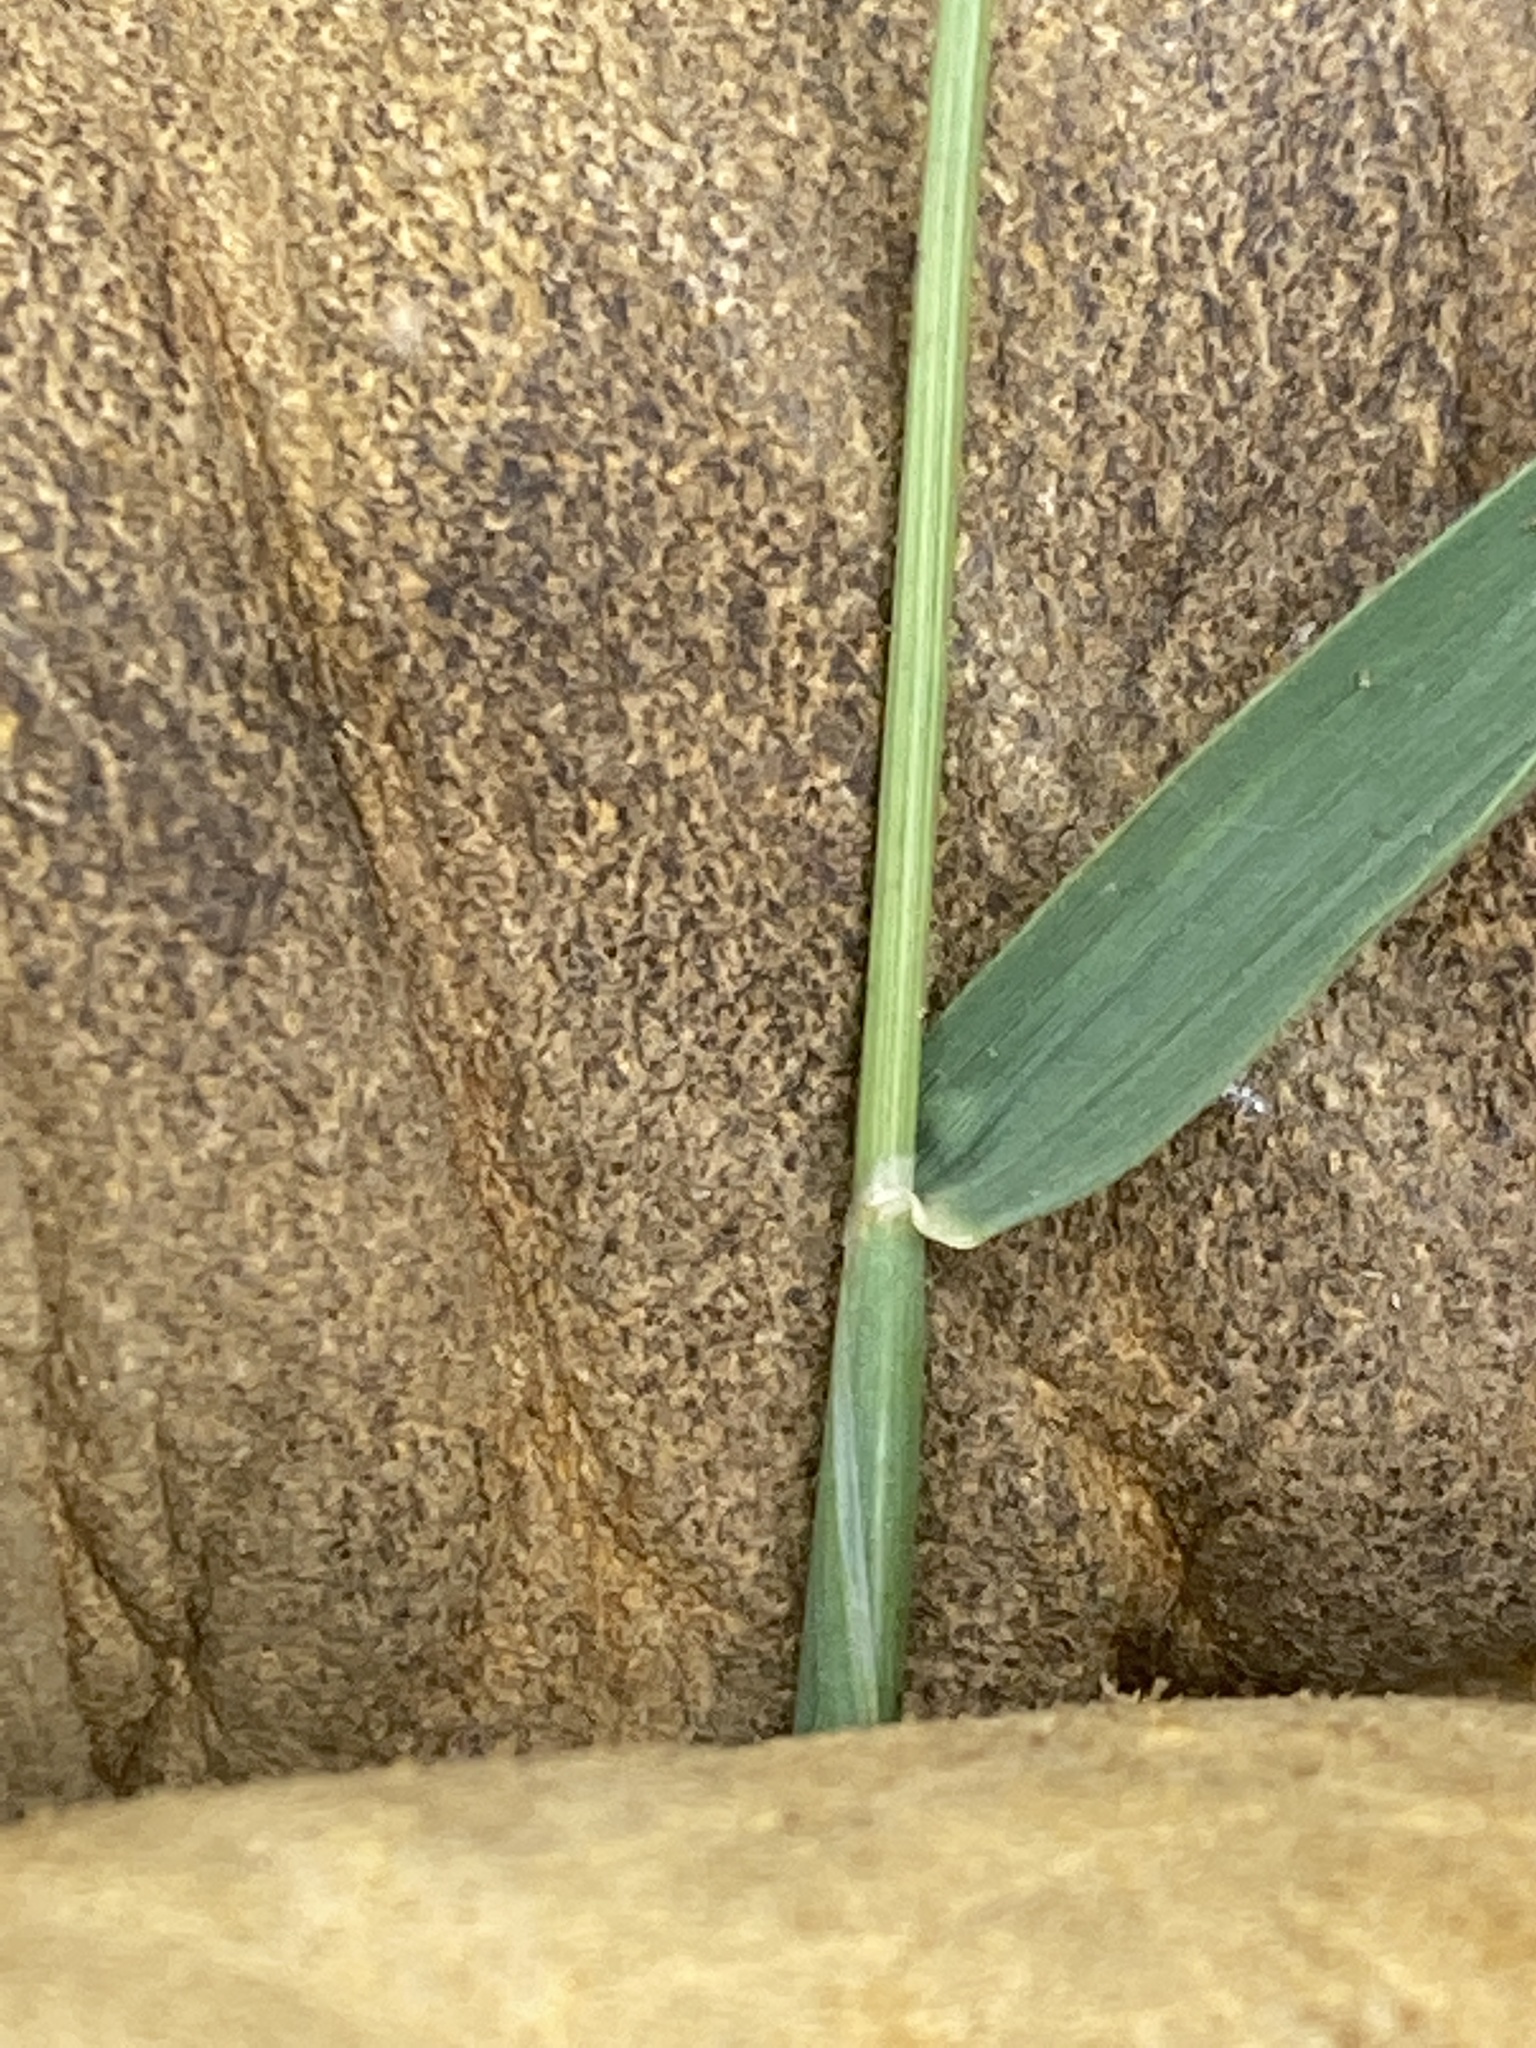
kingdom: Plantae
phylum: Tracheophyta
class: Liliopsida
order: Poales
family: Poaceae
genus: Hordeum
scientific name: Hordeum pusillum
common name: Little barley
